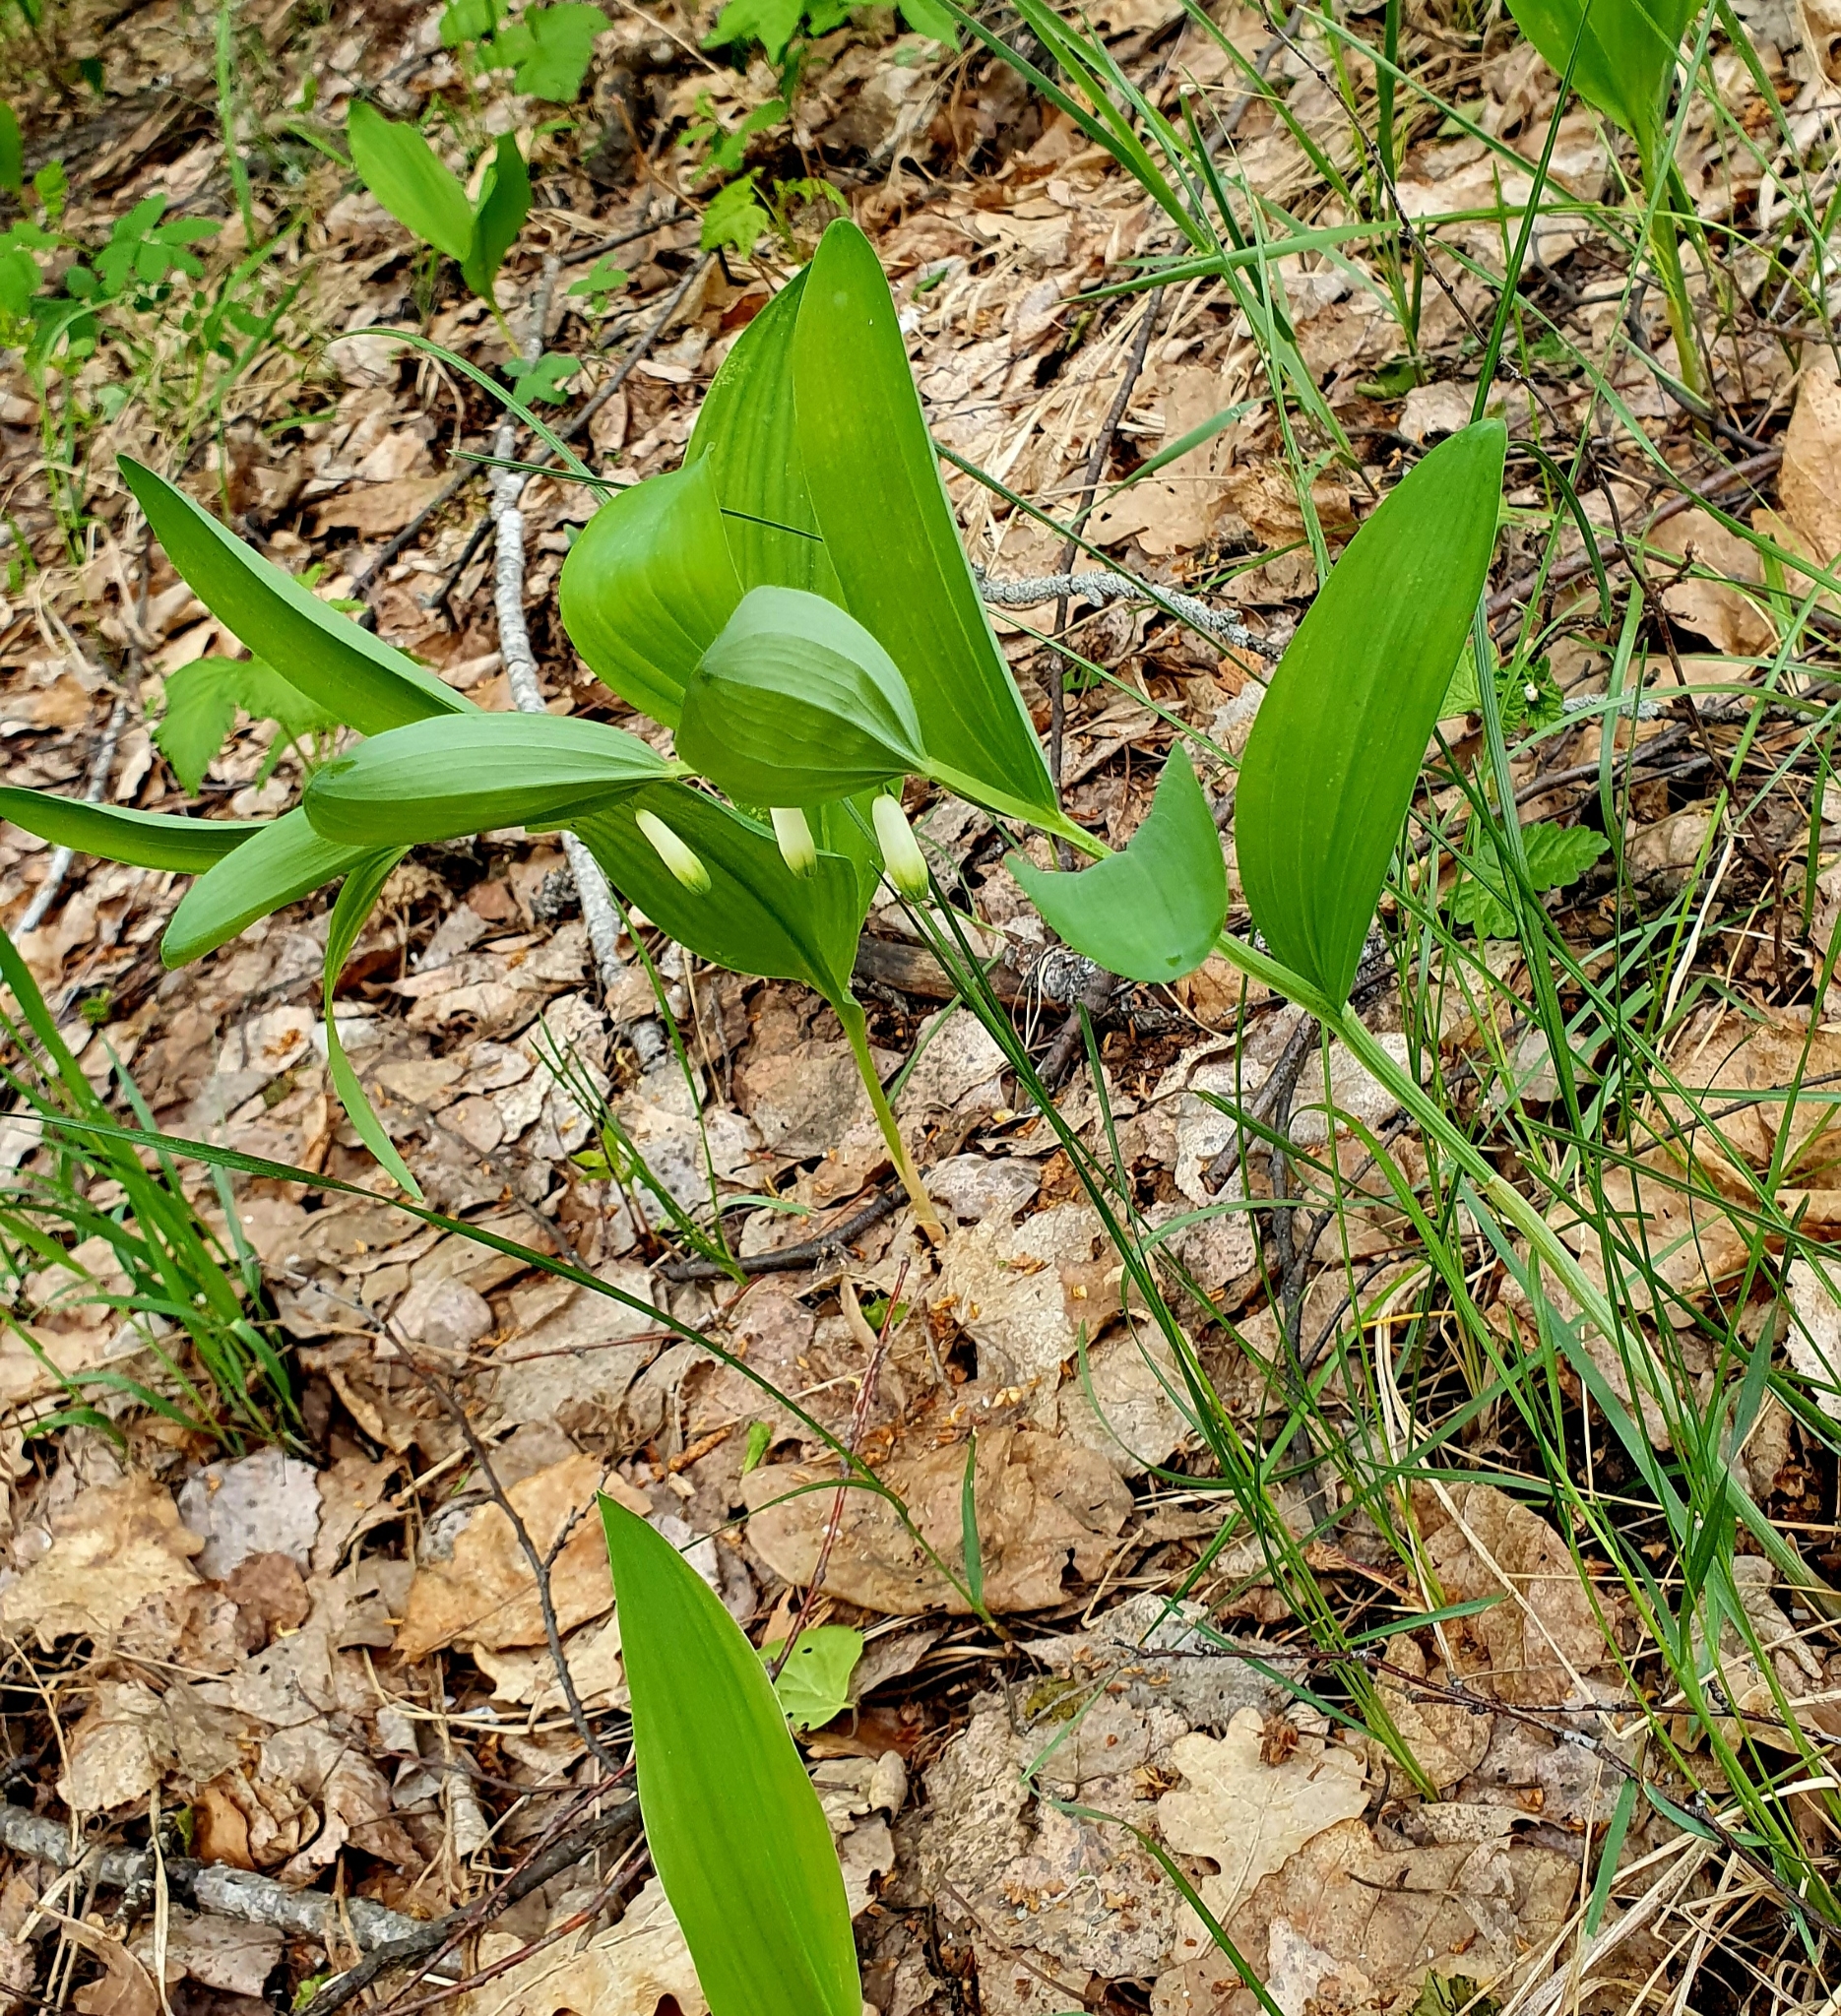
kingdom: Plantae
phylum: Tracheophyta
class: Liliopsida
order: Asparagales
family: Asparagaceae
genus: Polygonatum
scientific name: Polygonatum odoratum
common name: Angular solomon's-seal
